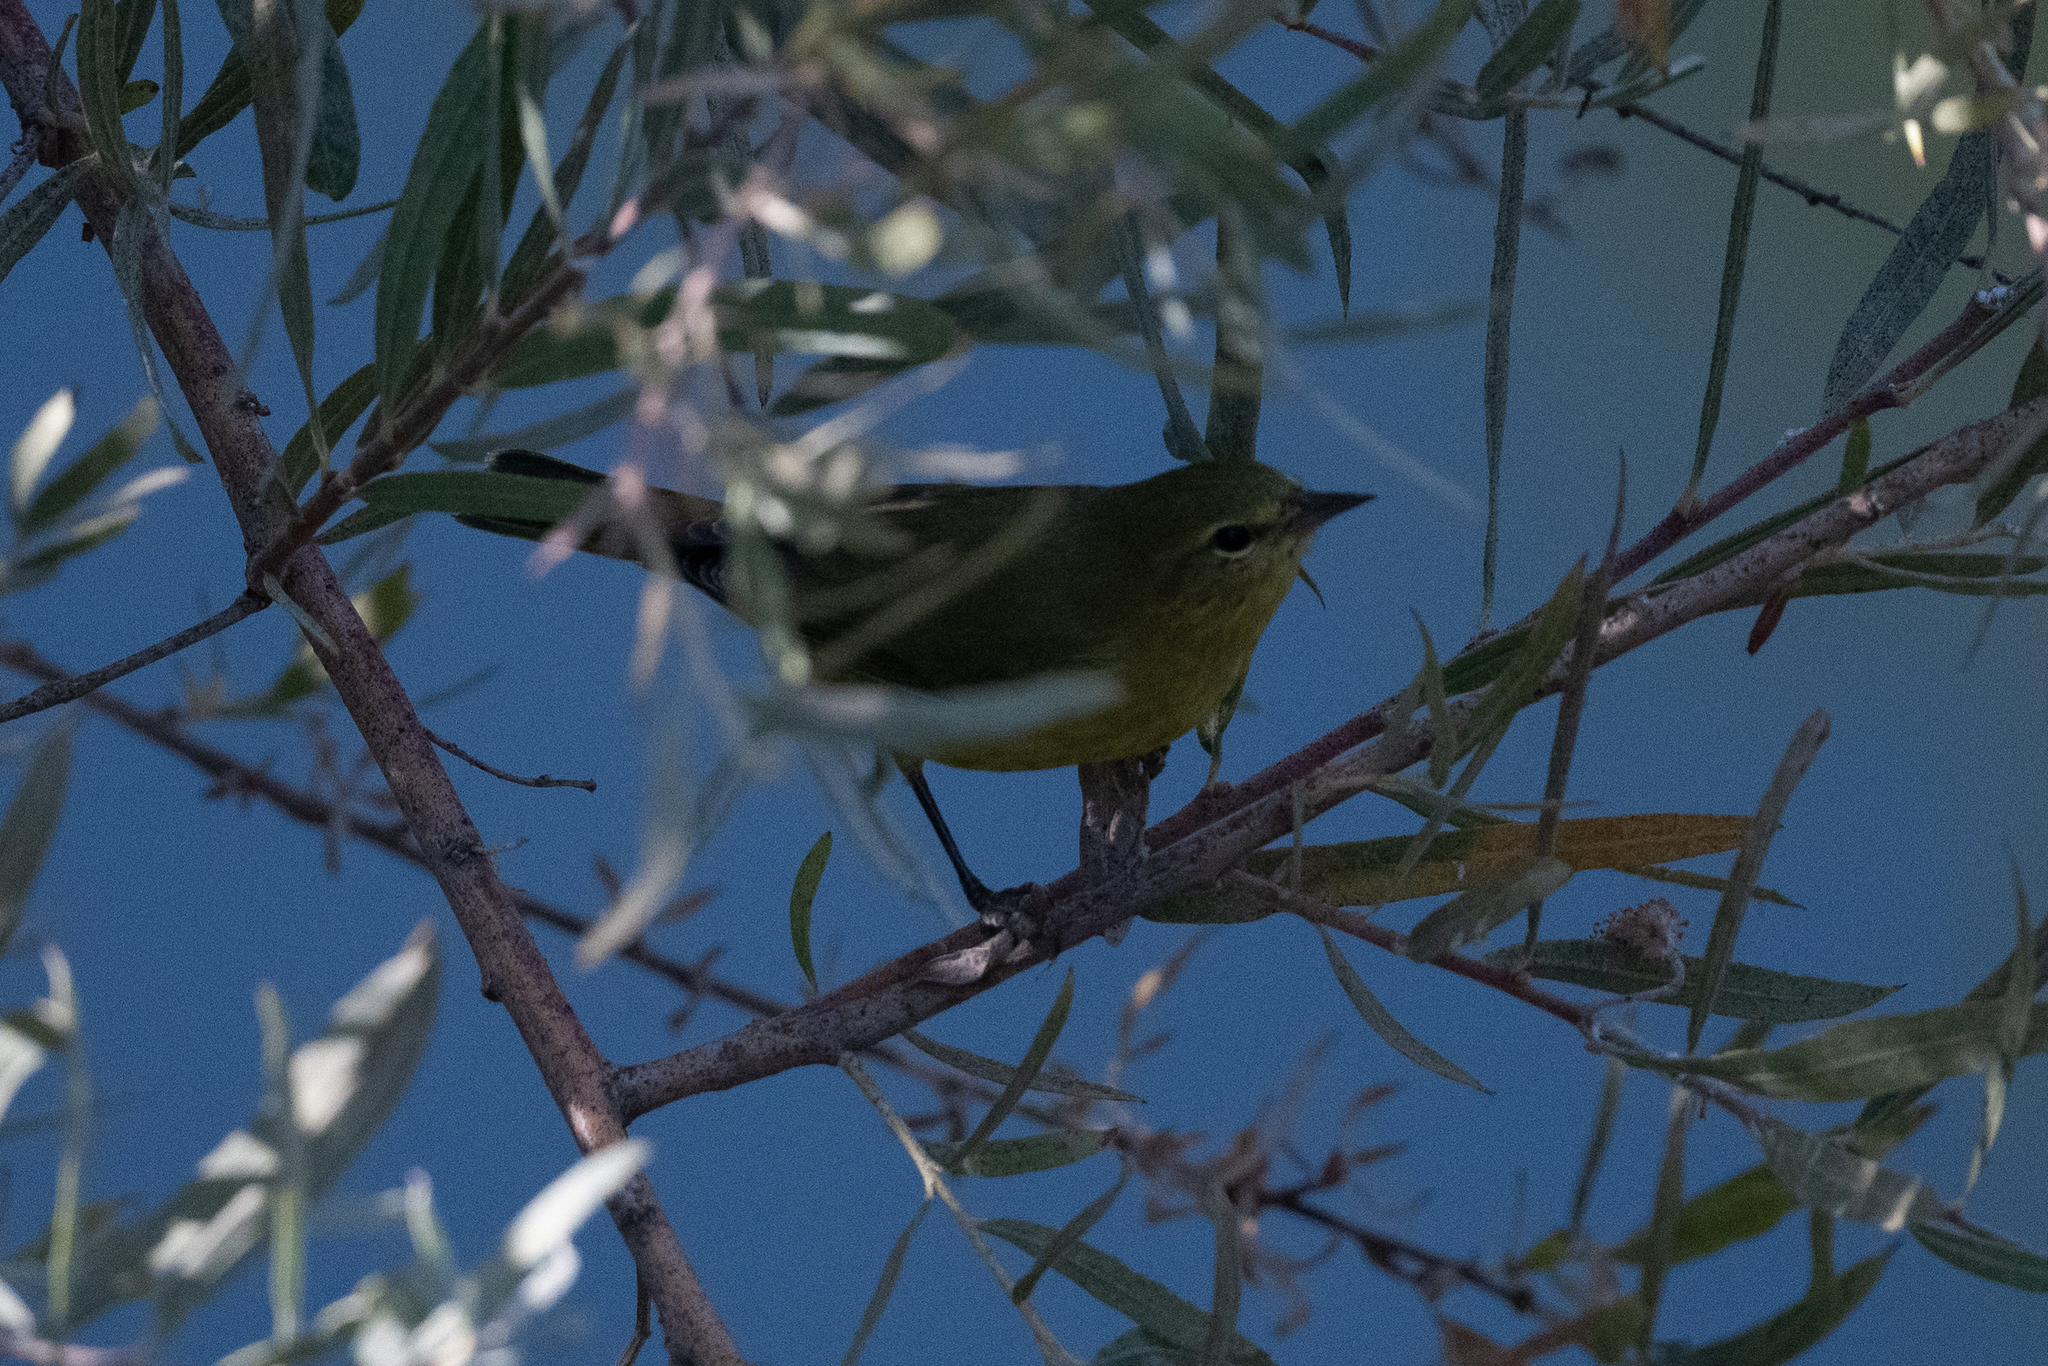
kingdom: Animalia
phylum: Chordata
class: Aves
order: Passeriformes
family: Parulidae
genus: Leiothlypis
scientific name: Leiothlypis celata
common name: Orange-crowned warbler
